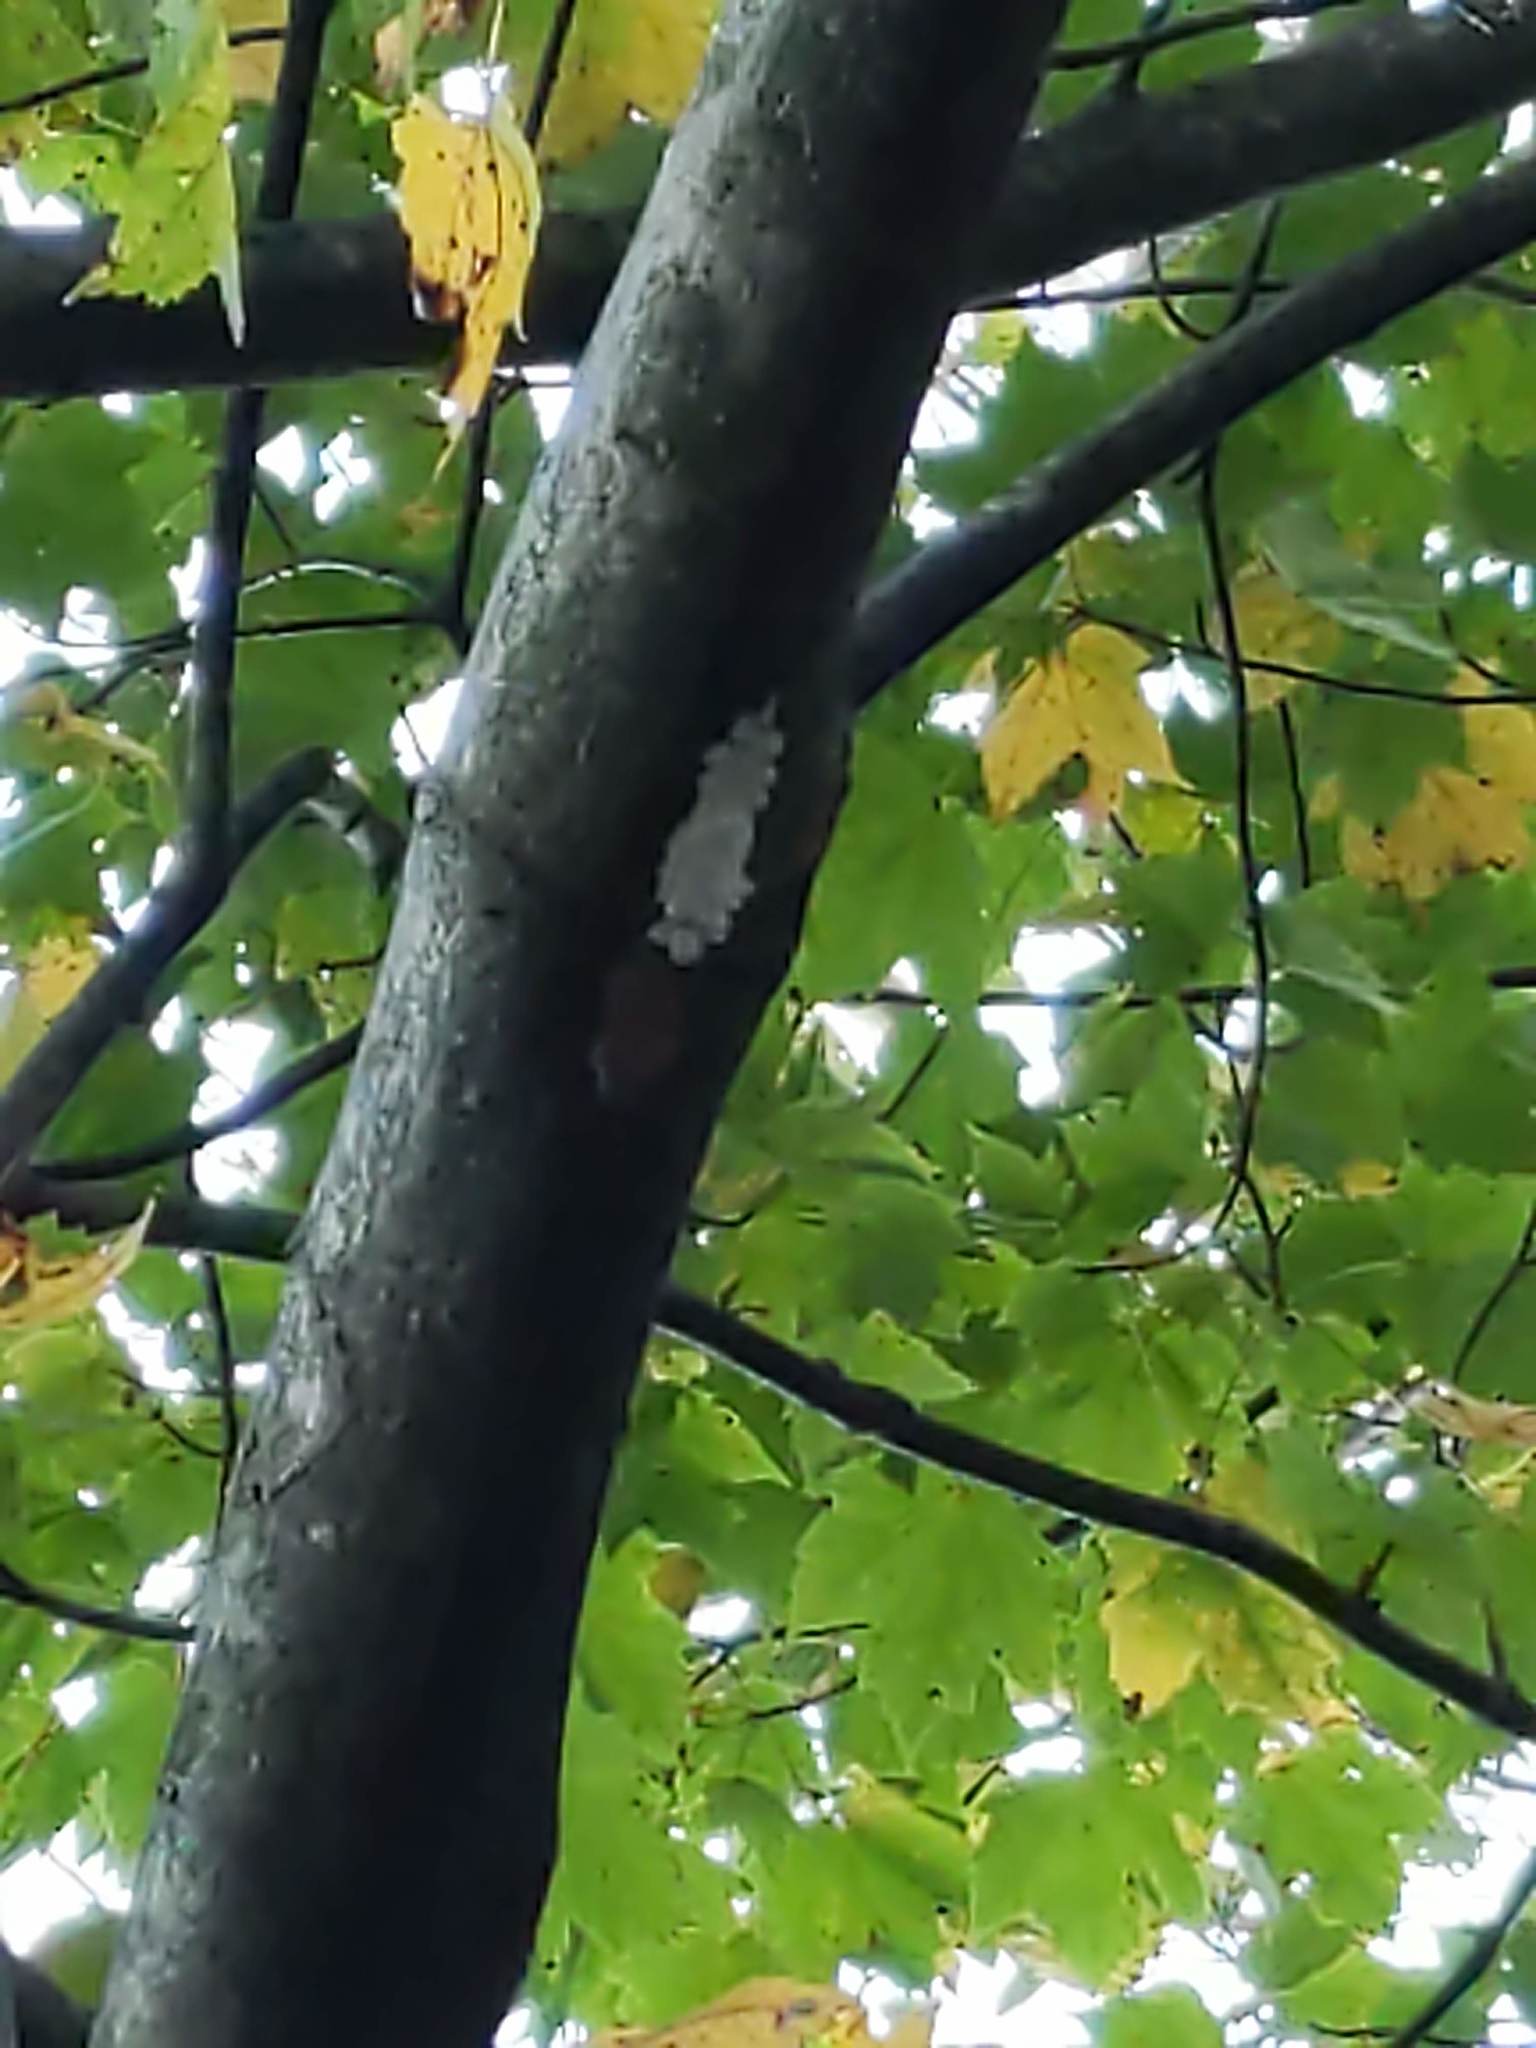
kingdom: Animalia
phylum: Arthropoda
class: Insecta
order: Hemiptera
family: Fulgoridae
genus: Lycorma
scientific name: Lycorma delicatula
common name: Spotted lanternfly
